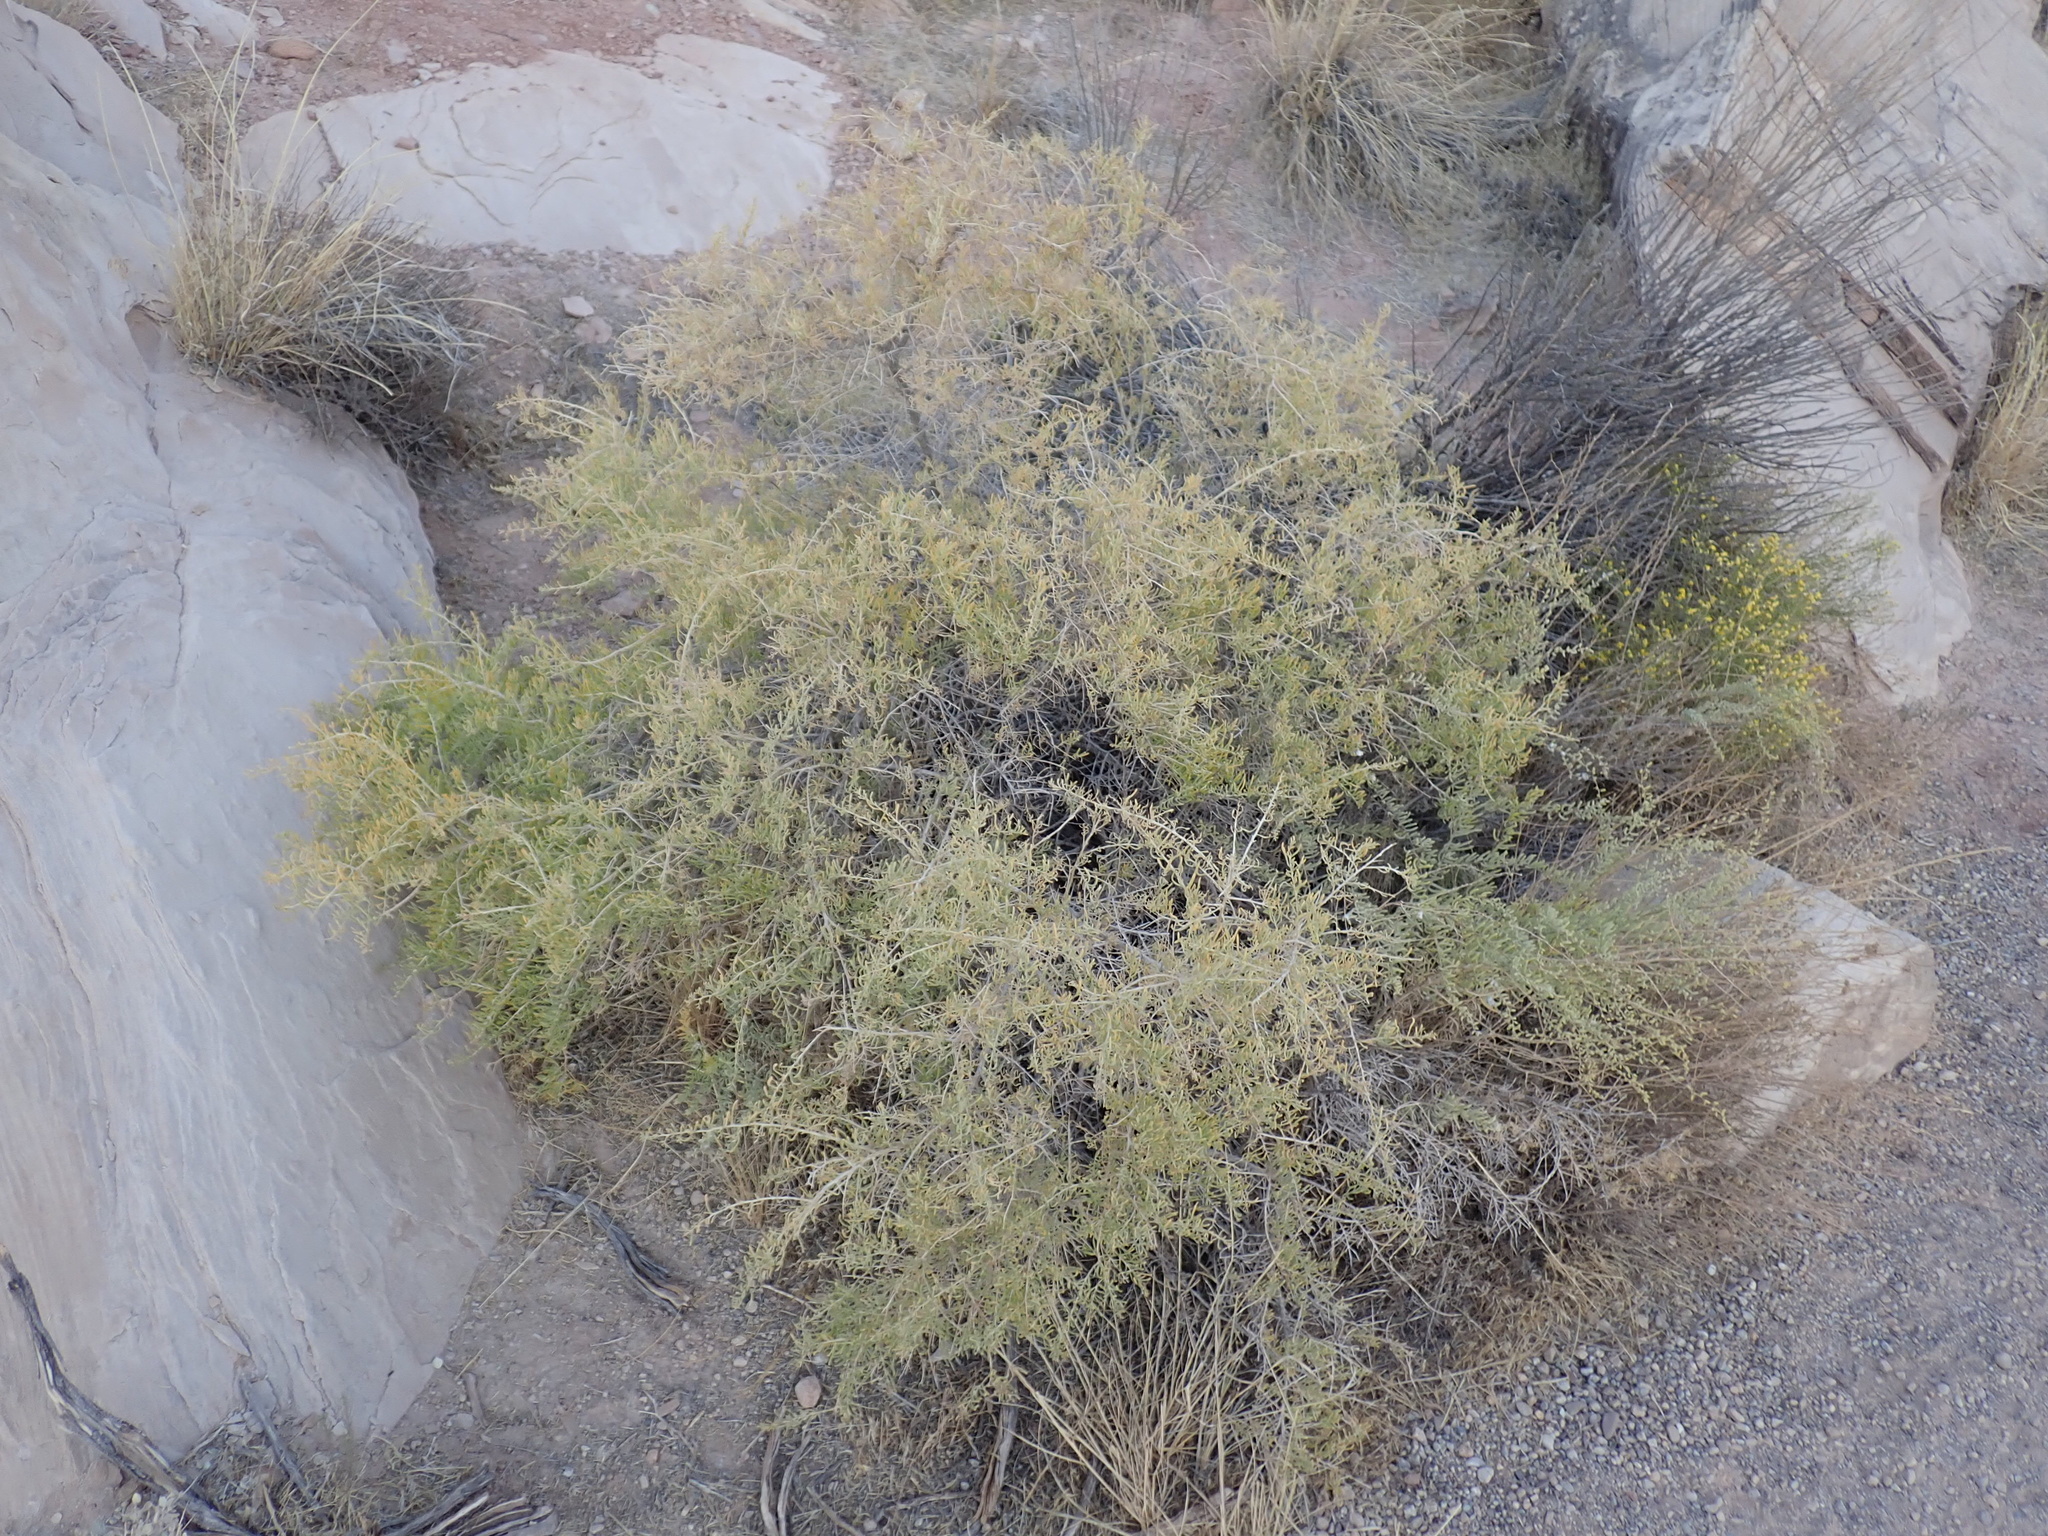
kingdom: Plantae
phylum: Tracheophyta
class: Magnoliopsida
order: Caryophyllales
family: Sarcobataceae
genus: Sarcobatus
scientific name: Sarcobatus vermiculatus
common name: Greasewood
